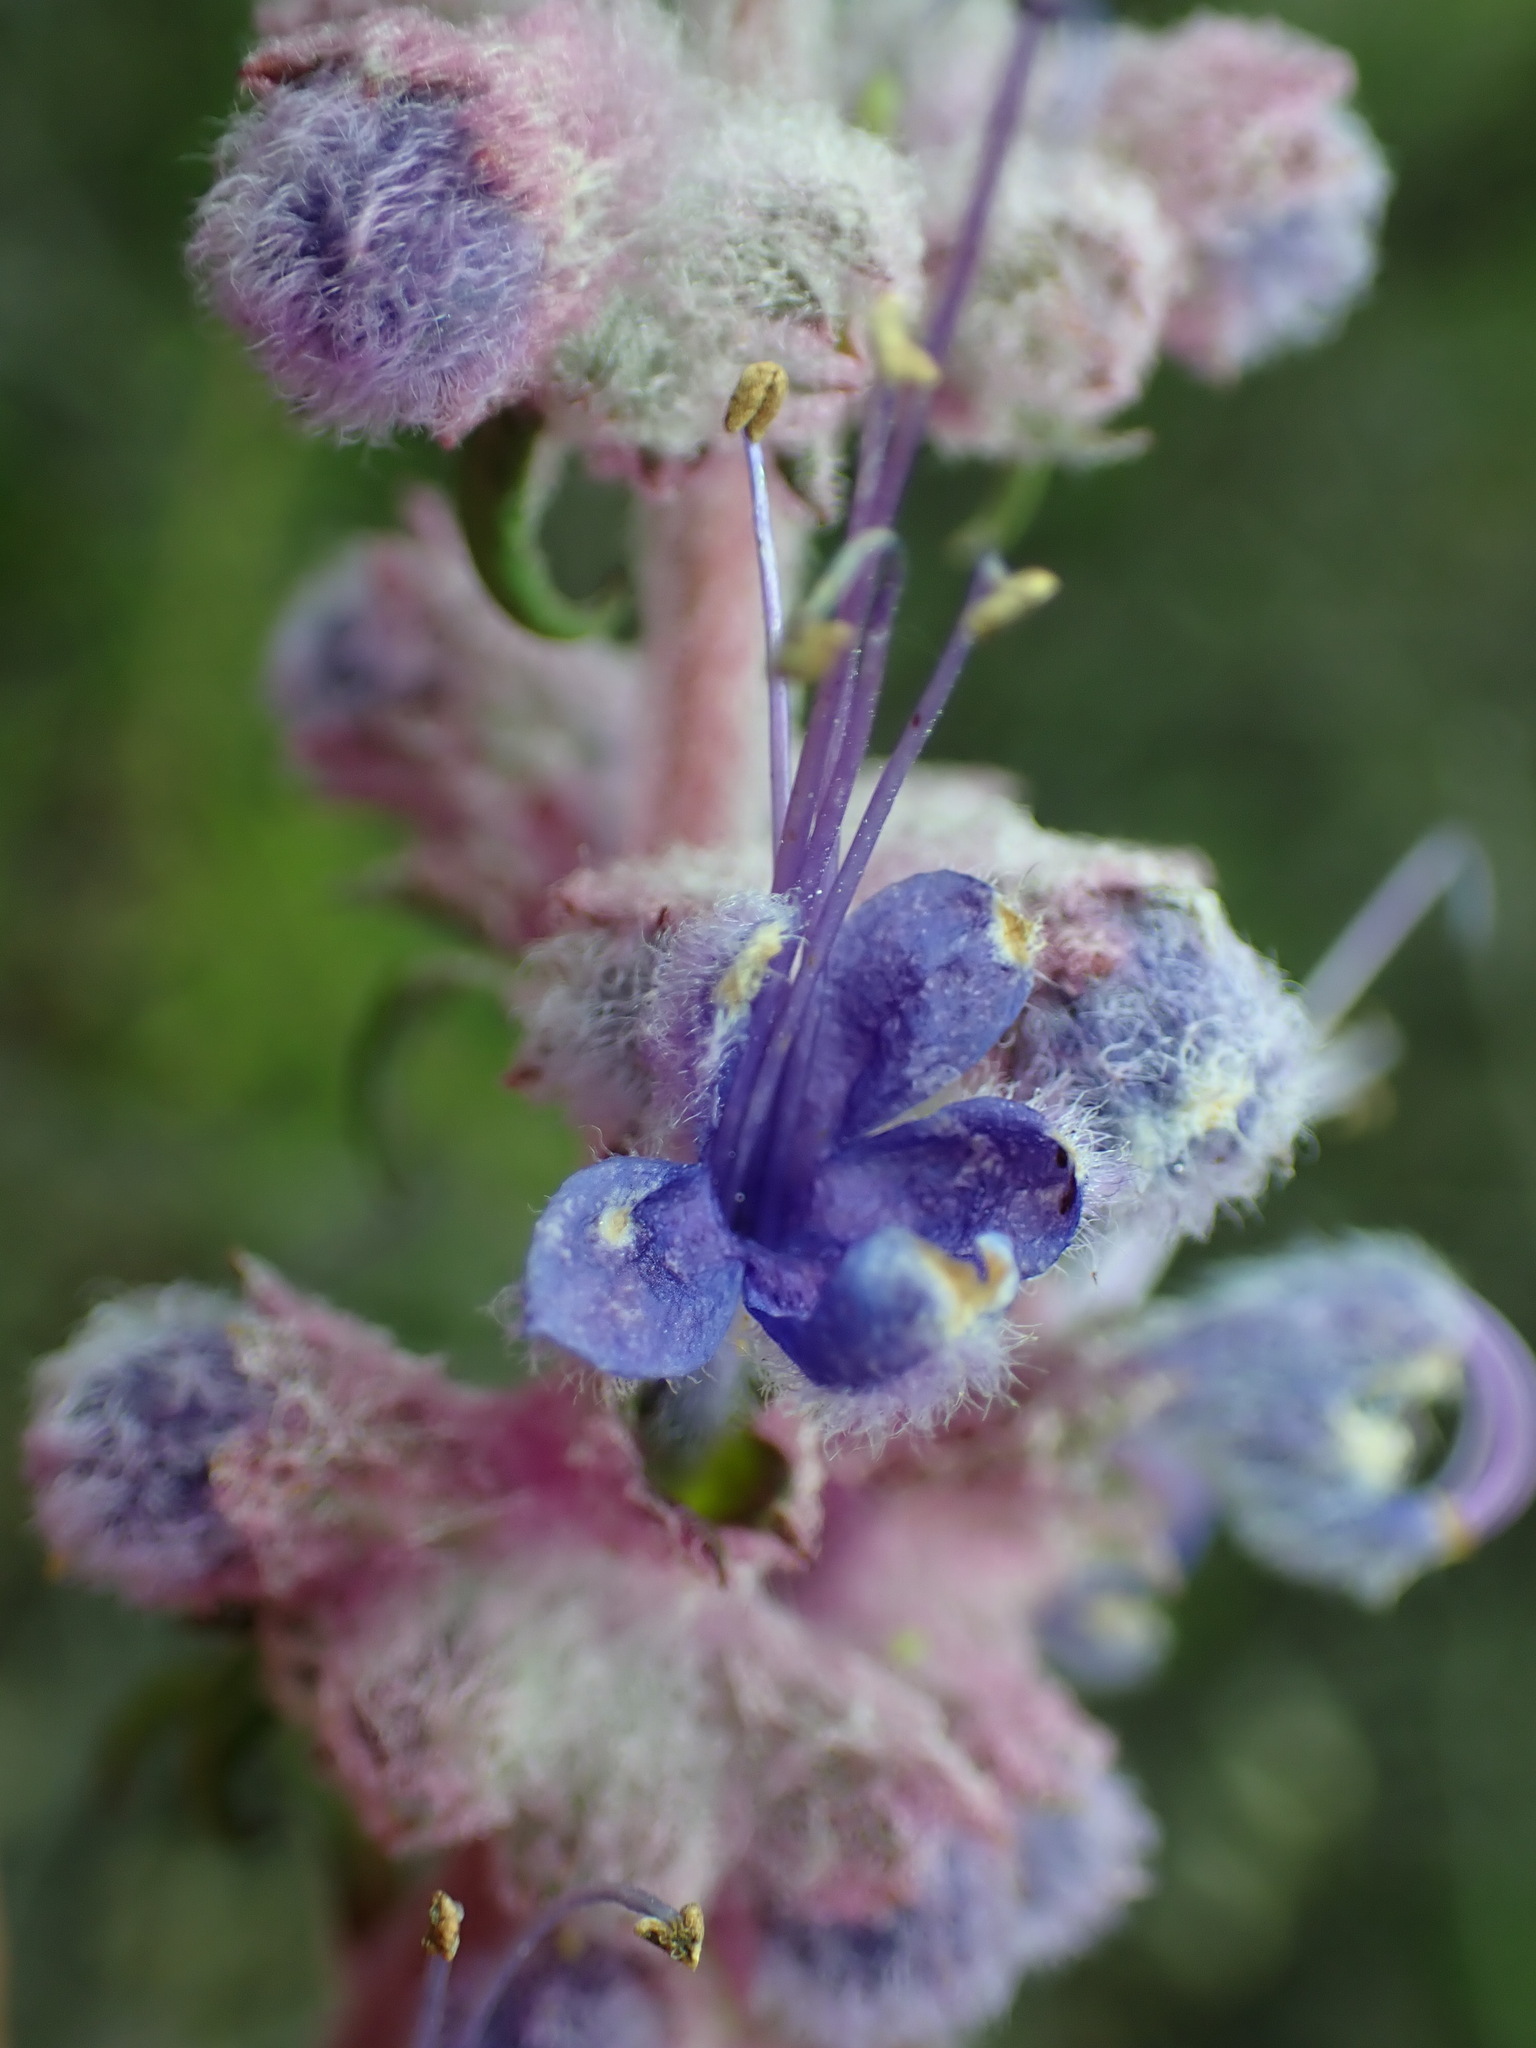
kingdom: Plantae
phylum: Tracheophyta
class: Magnoliopsida
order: Lamiales
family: Lamiaceae
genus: Trichostema
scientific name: Trichostema lanatum
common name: Woolly bluecurls
